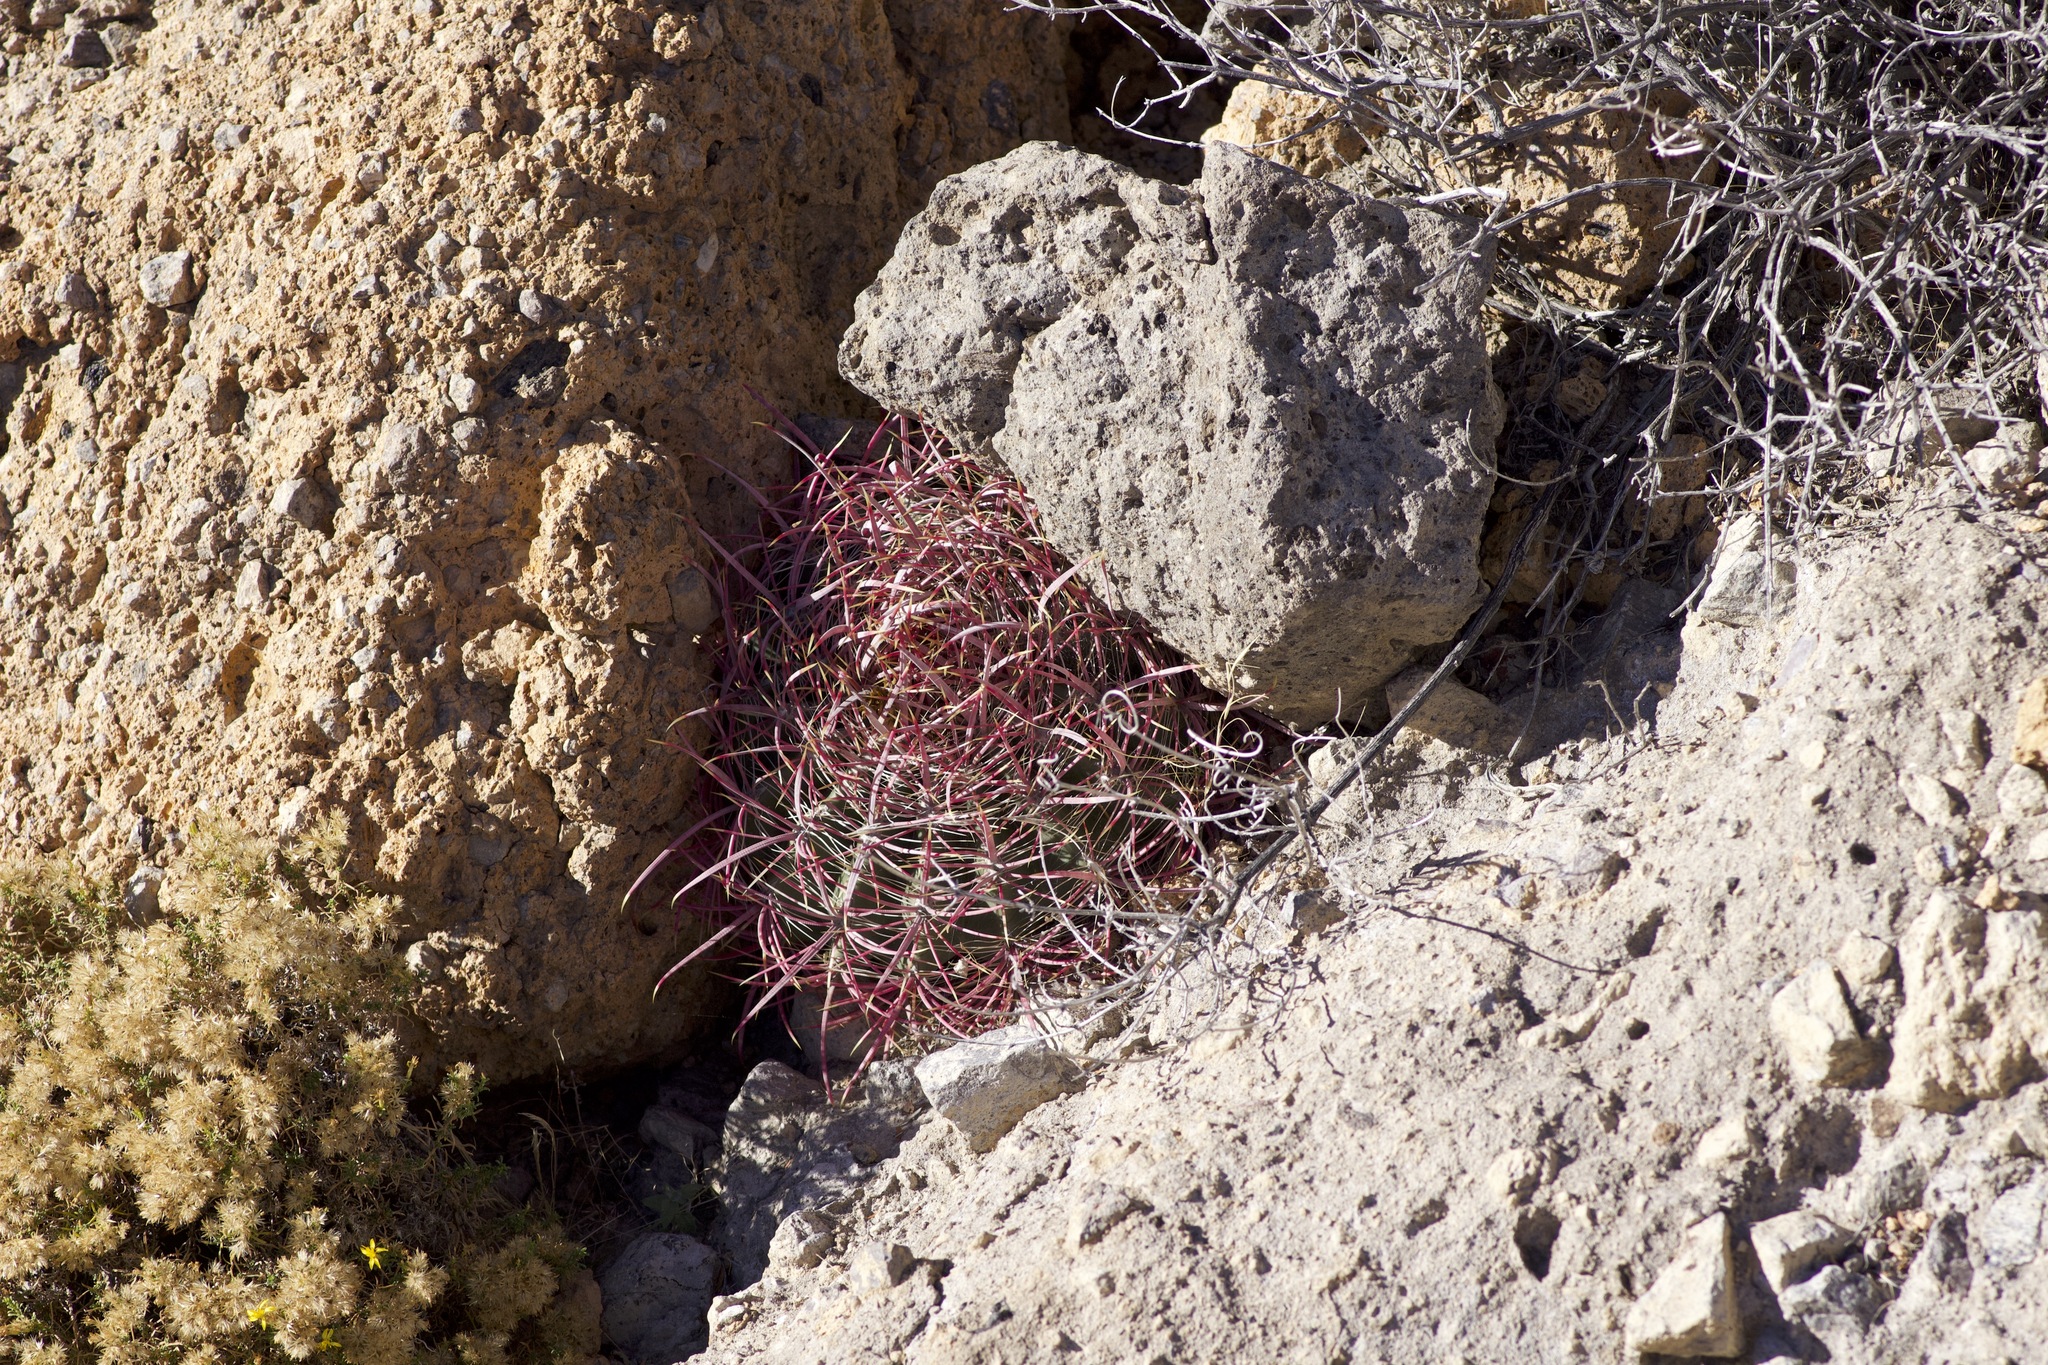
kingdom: Plantae
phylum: Tracheophyta
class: Magnoliopsida
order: Caryophyllales
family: Cactaceae
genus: Ferocactus
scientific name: Ferocactus cylindraceus
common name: California barrel cactus
